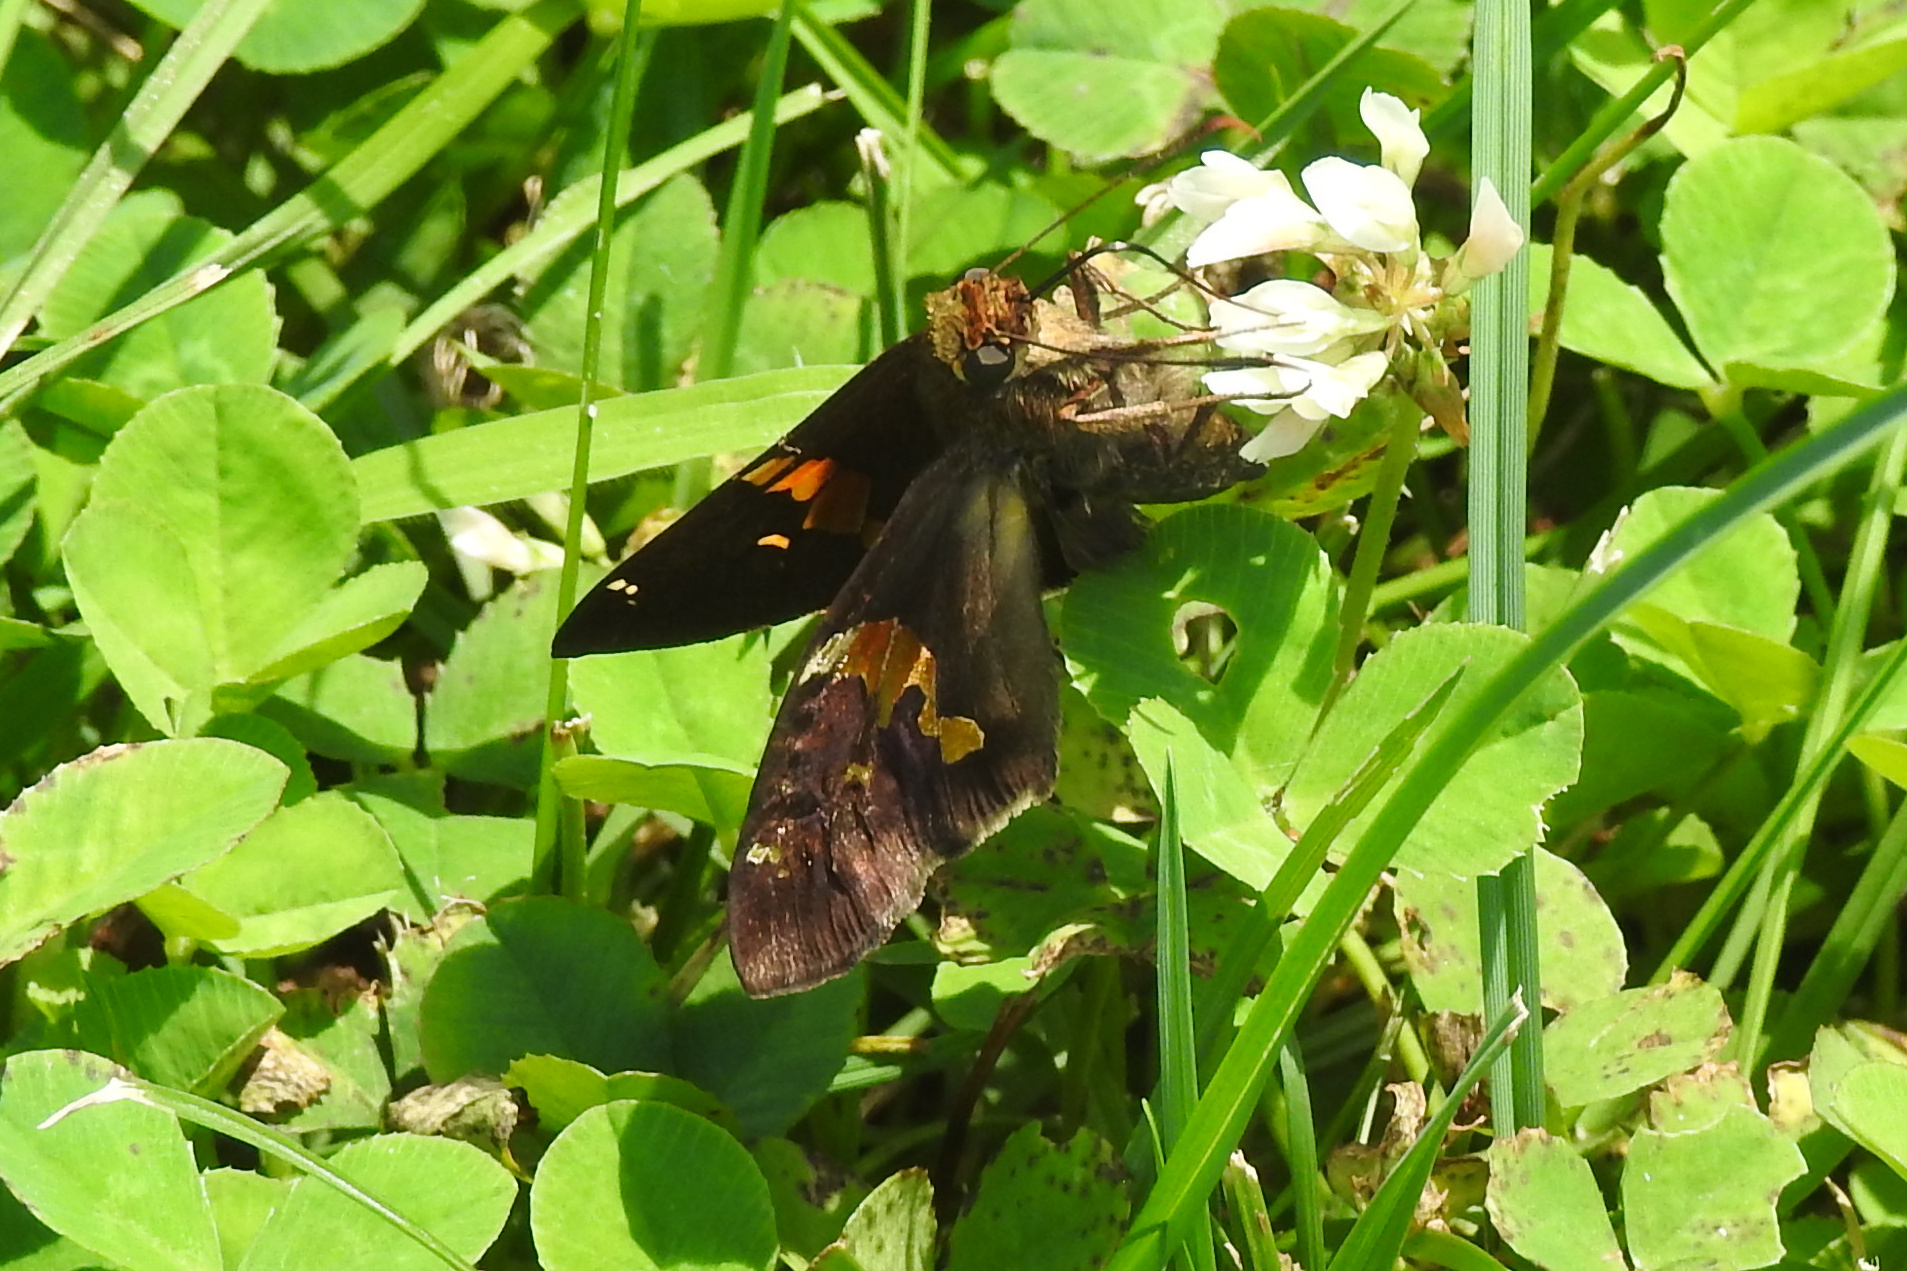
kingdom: Animalia
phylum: Arthropoda
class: Insecta
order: Lepidoptera
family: Hesperiidae
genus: Epargyreus
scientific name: Epargyreus clarus
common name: Silver-spotted skipper
